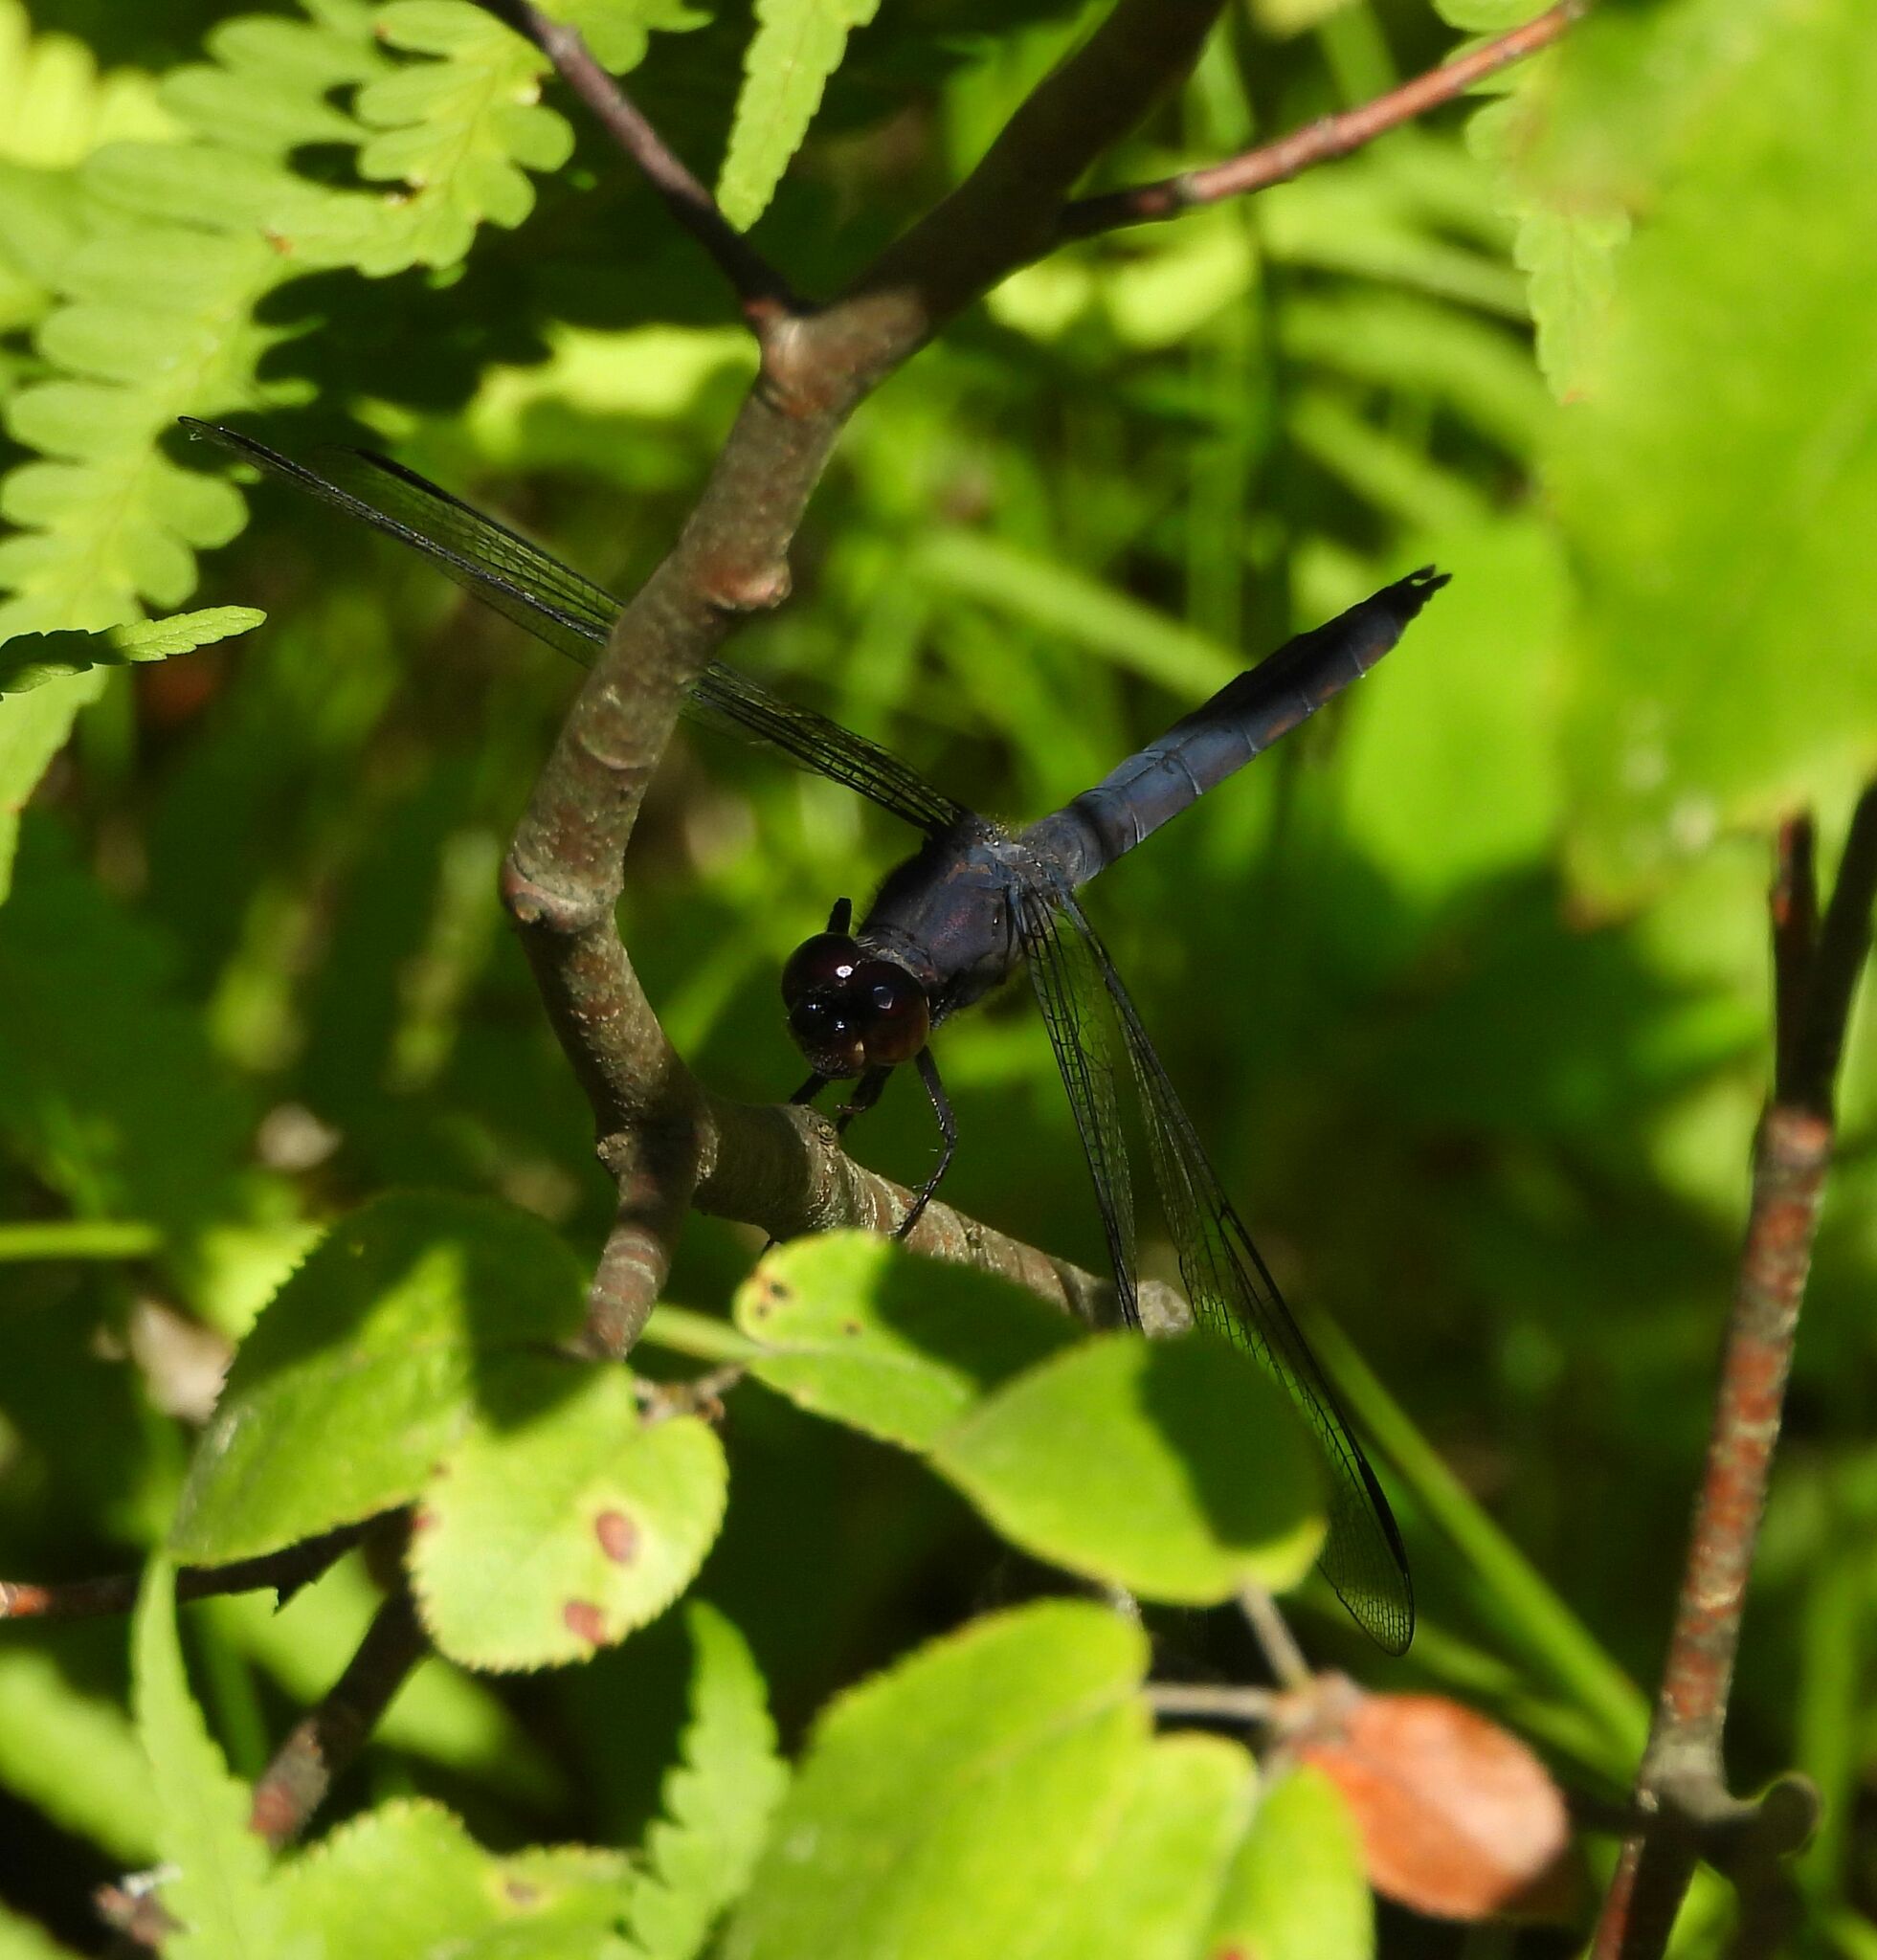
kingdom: Animalia
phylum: Arthropoda
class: Insecta
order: Odonata
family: Libellulidae
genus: Libellula
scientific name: Libellula incesta
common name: Slaty skimmer
